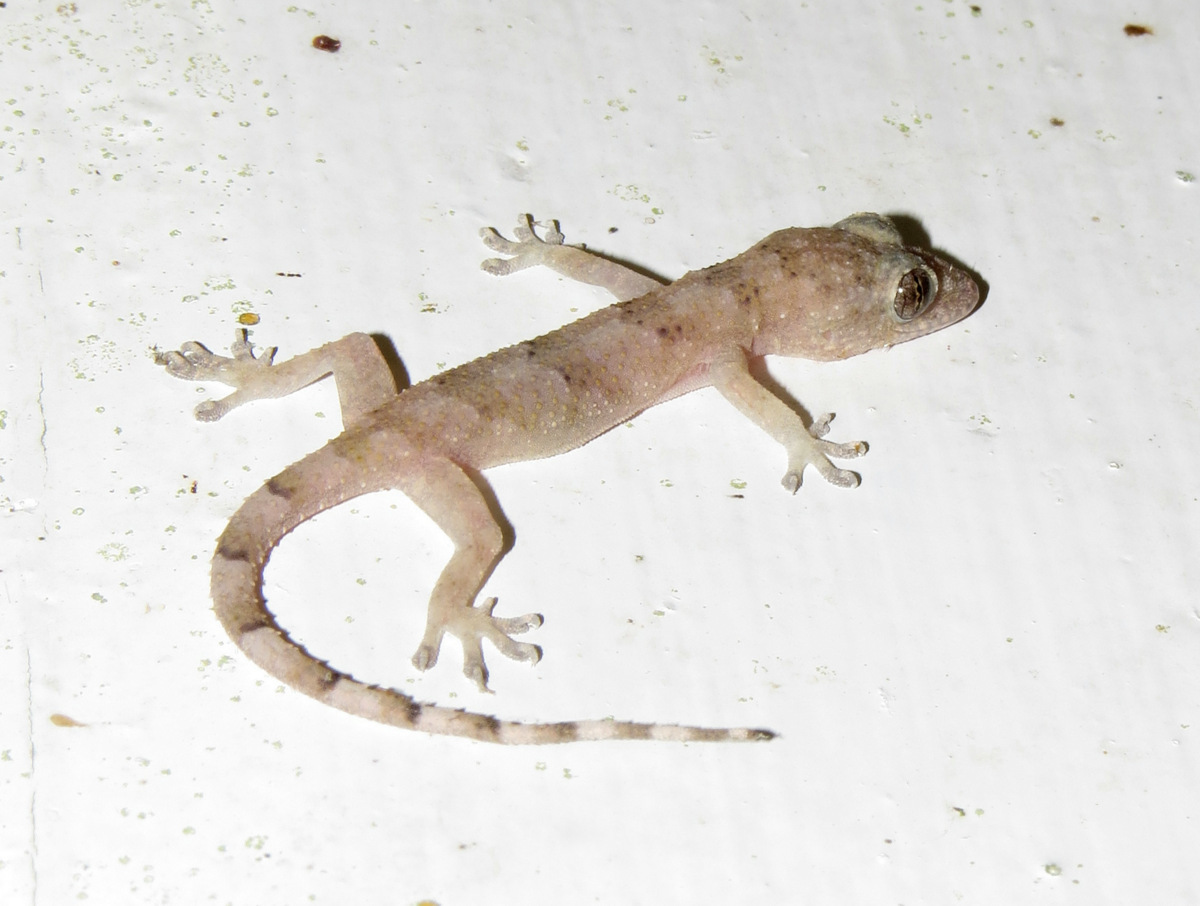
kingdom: Animalia
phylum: Chordata
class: Squamata
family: Gekkonidae
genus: Hemidactylus
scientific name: Hemidactylus mabouia
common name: House gecko
